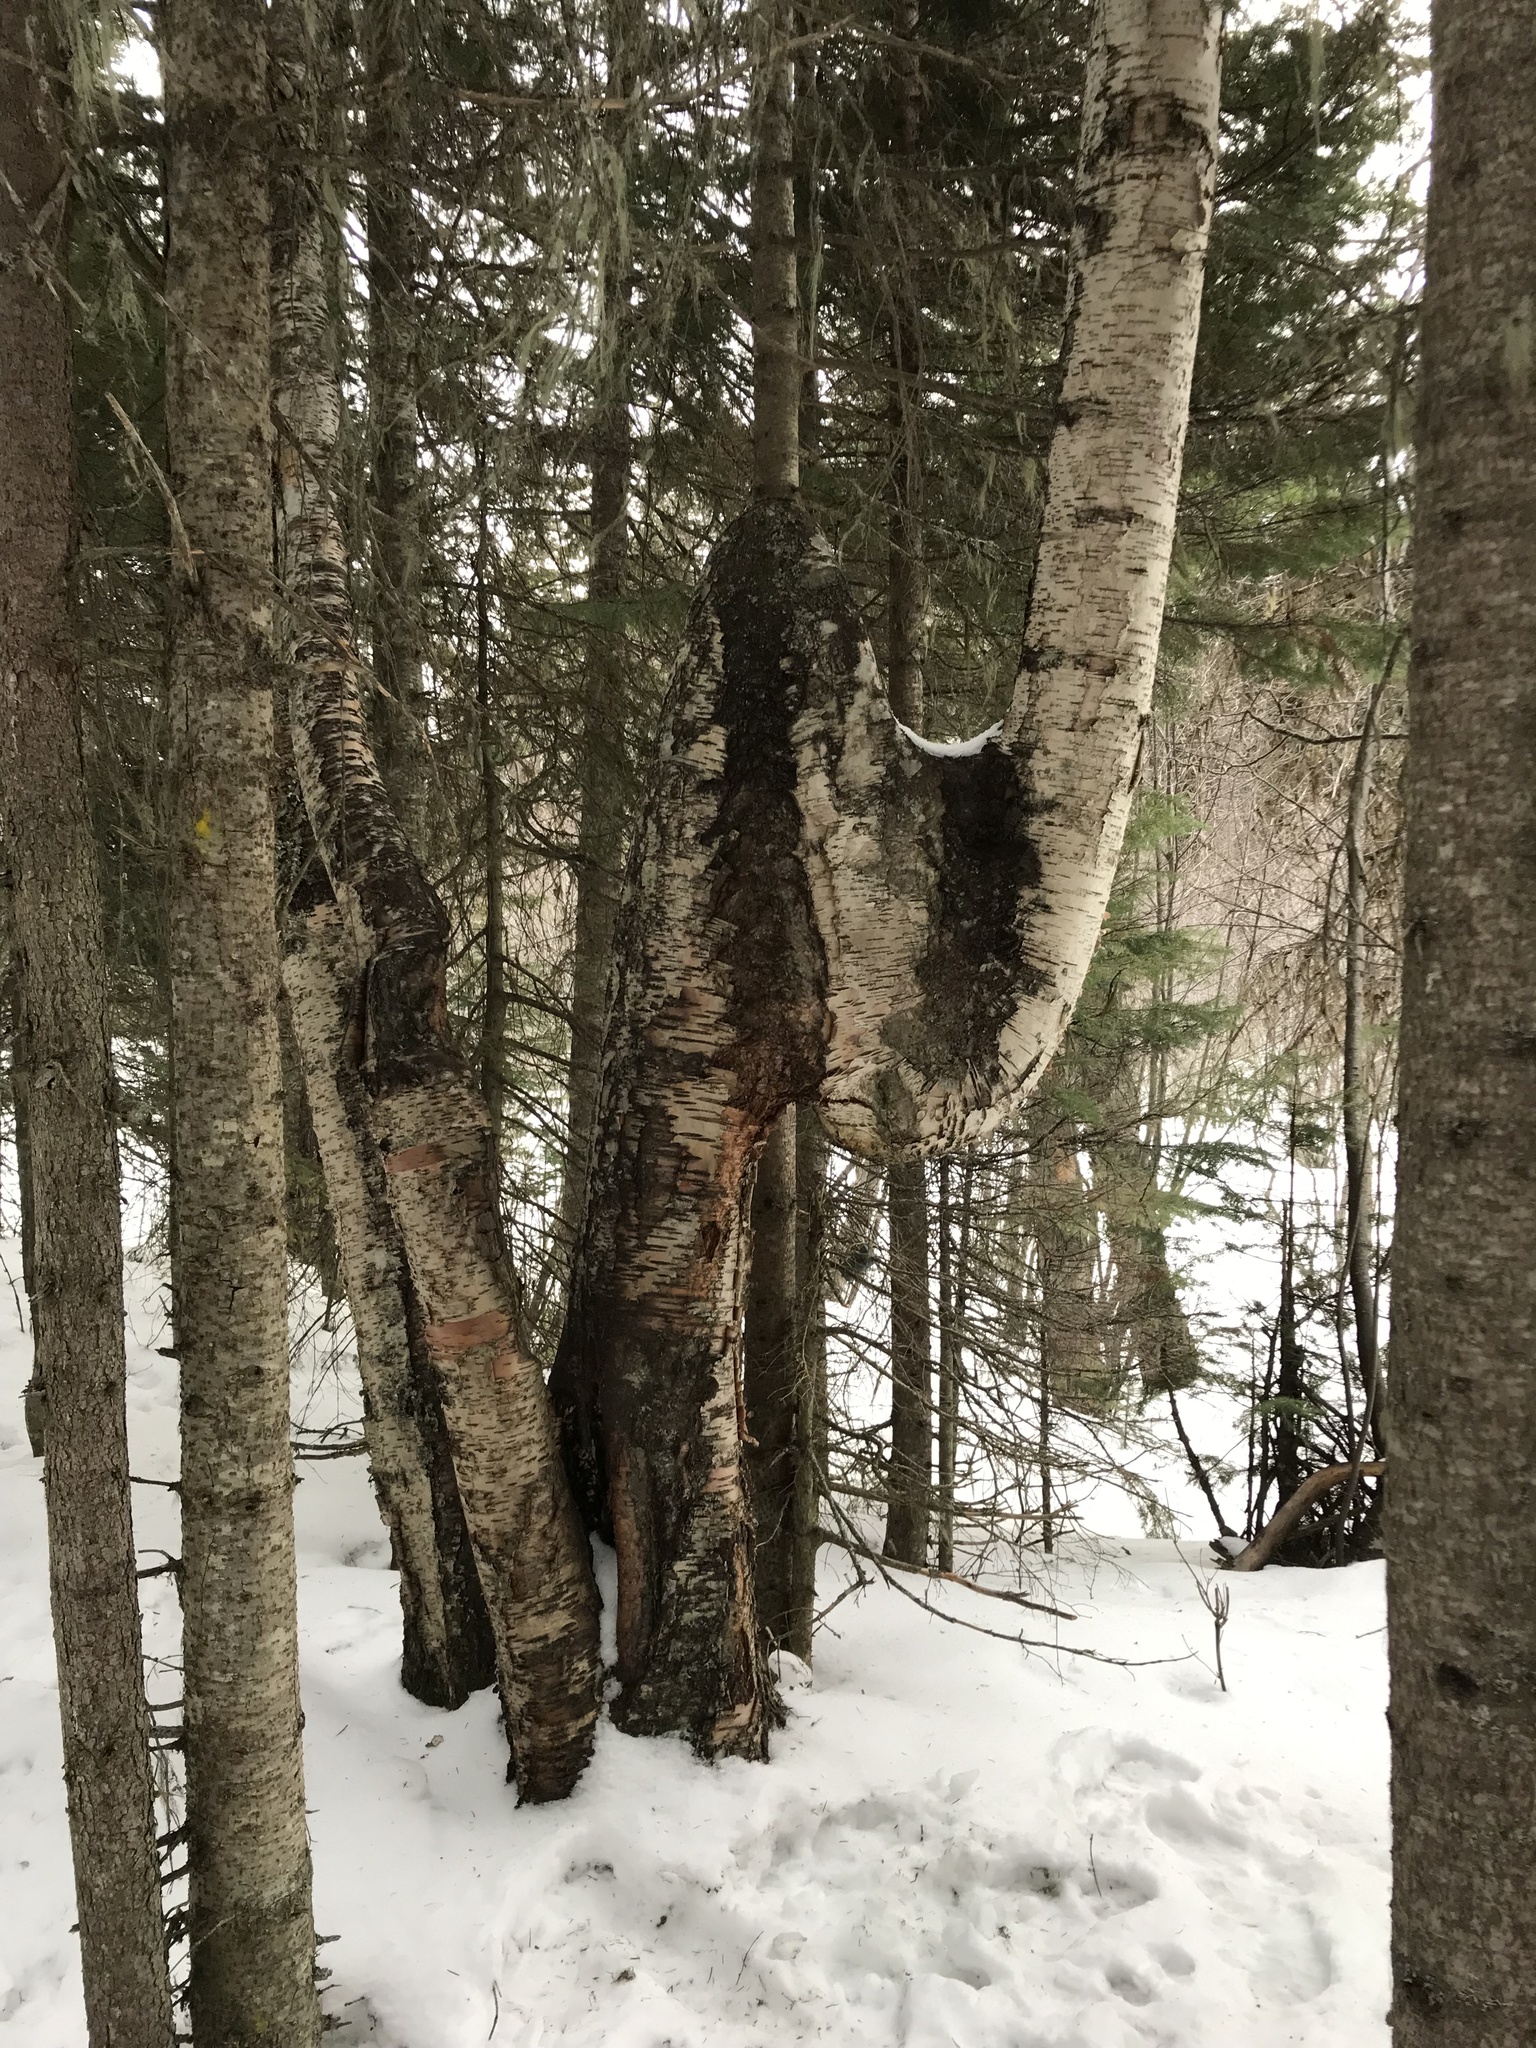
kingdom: Plantae
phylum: Tracheophyta
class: Magnoliopsida
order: Fagales
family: Betulaceae
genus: Betula
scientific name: Betula papyrifera
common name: Paper birch
